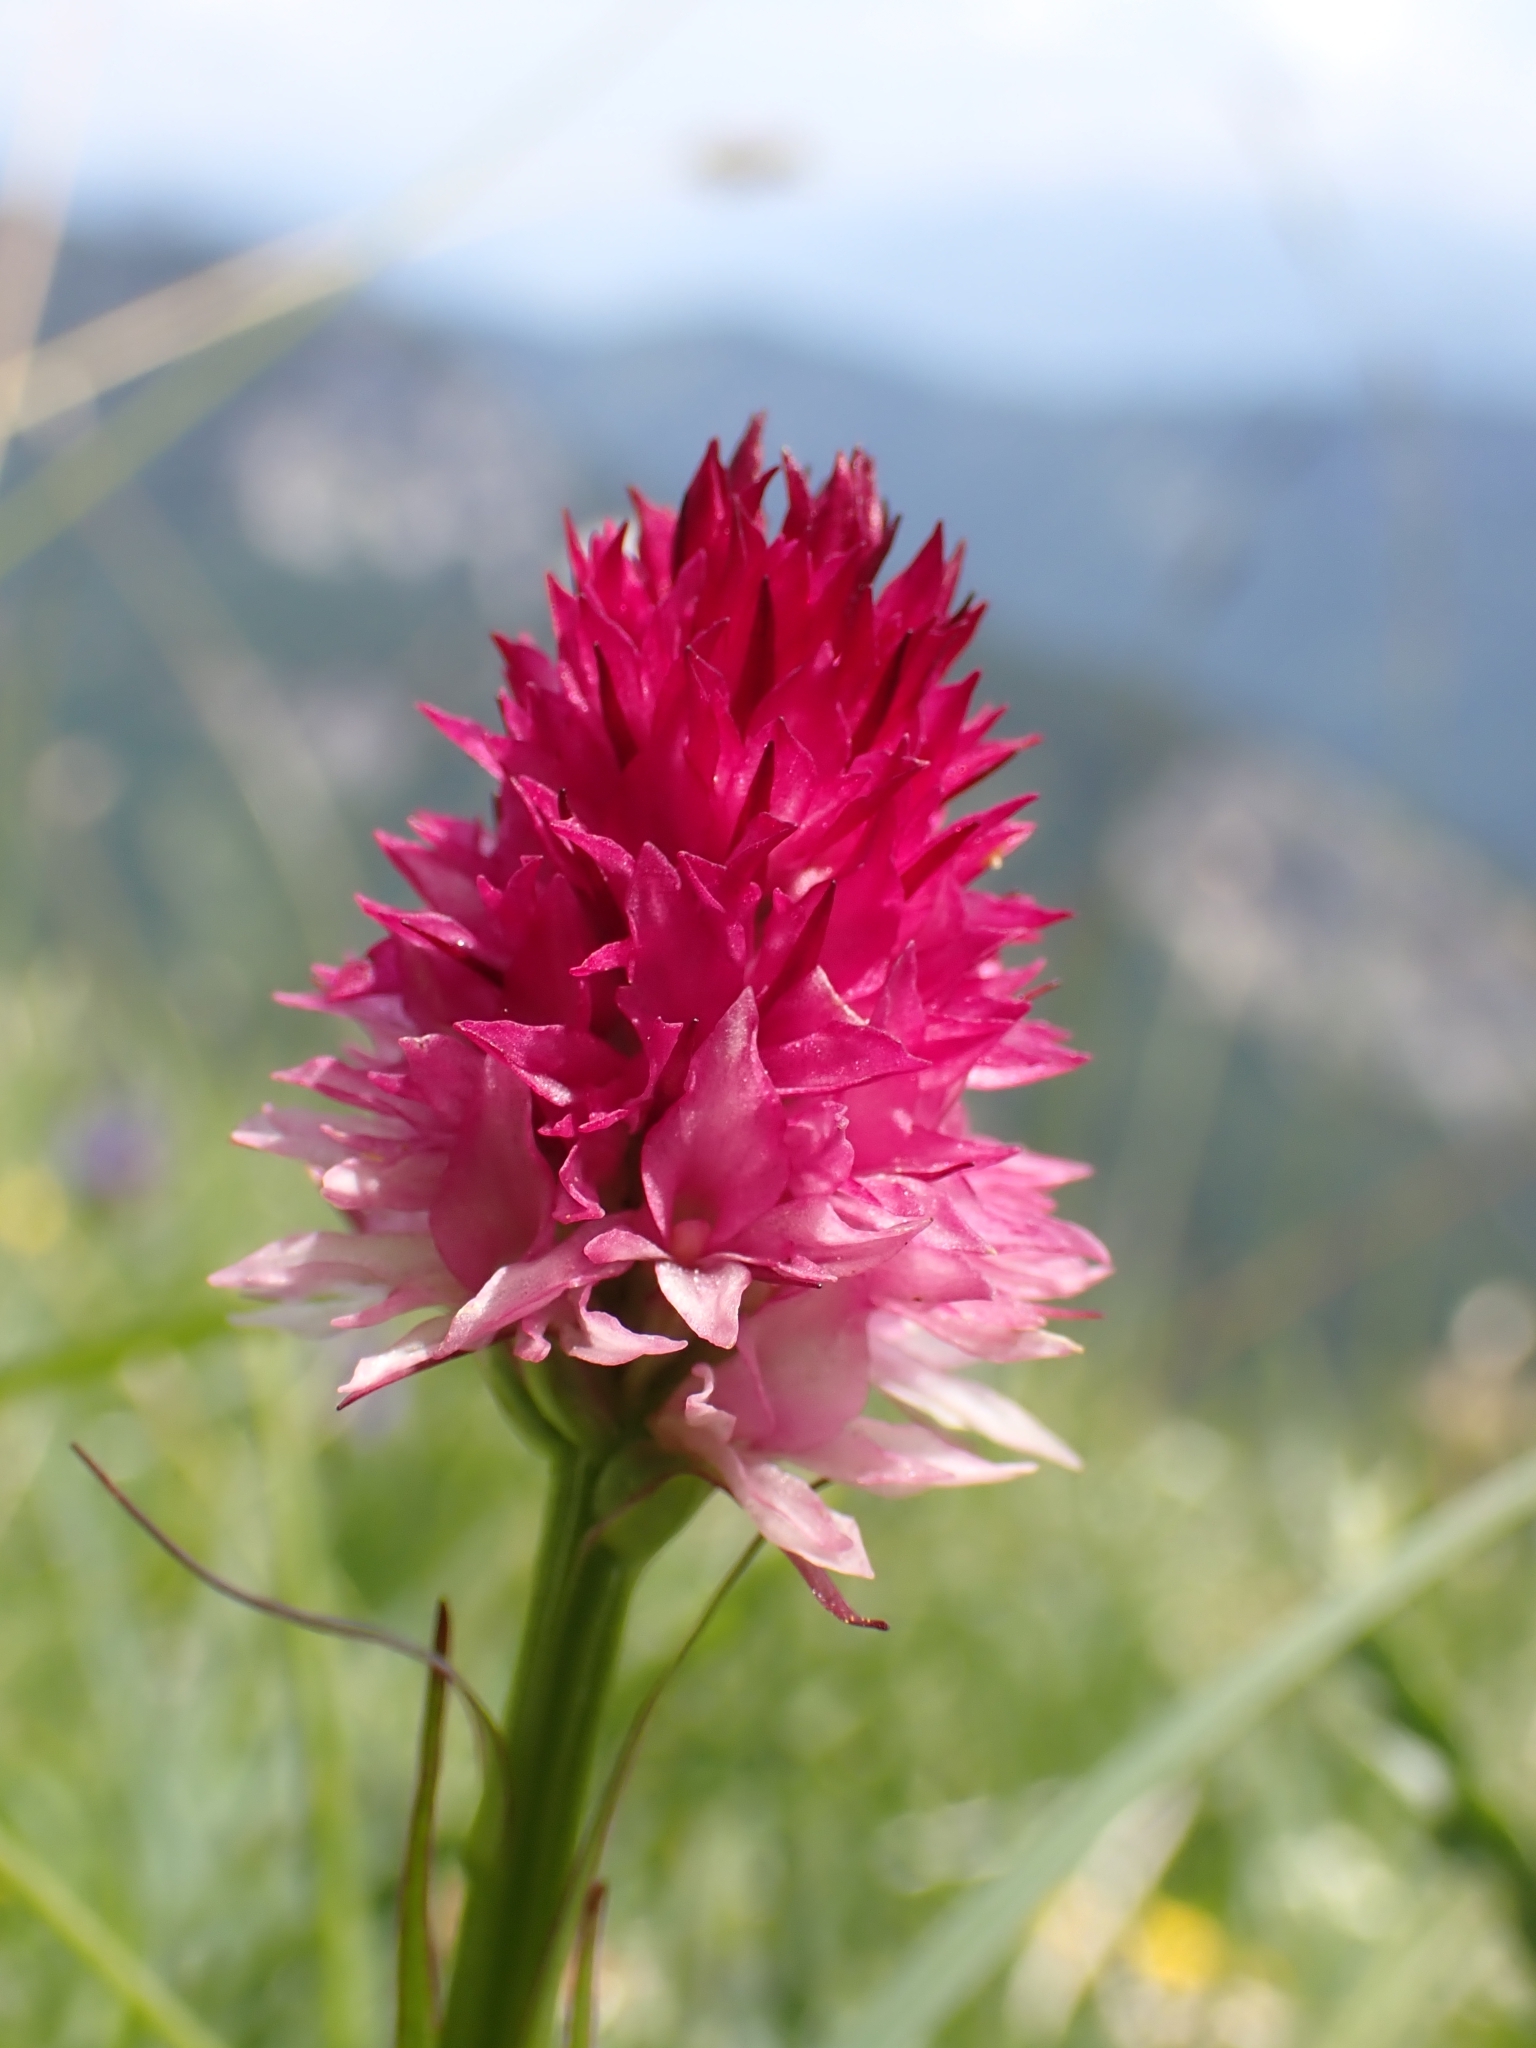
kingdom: Plantae
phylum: Tracheophyta
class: Liliopsida
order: Asparagales
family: Orchidaceae
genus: Gymnadenia
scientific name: Gymnadenia miniata
